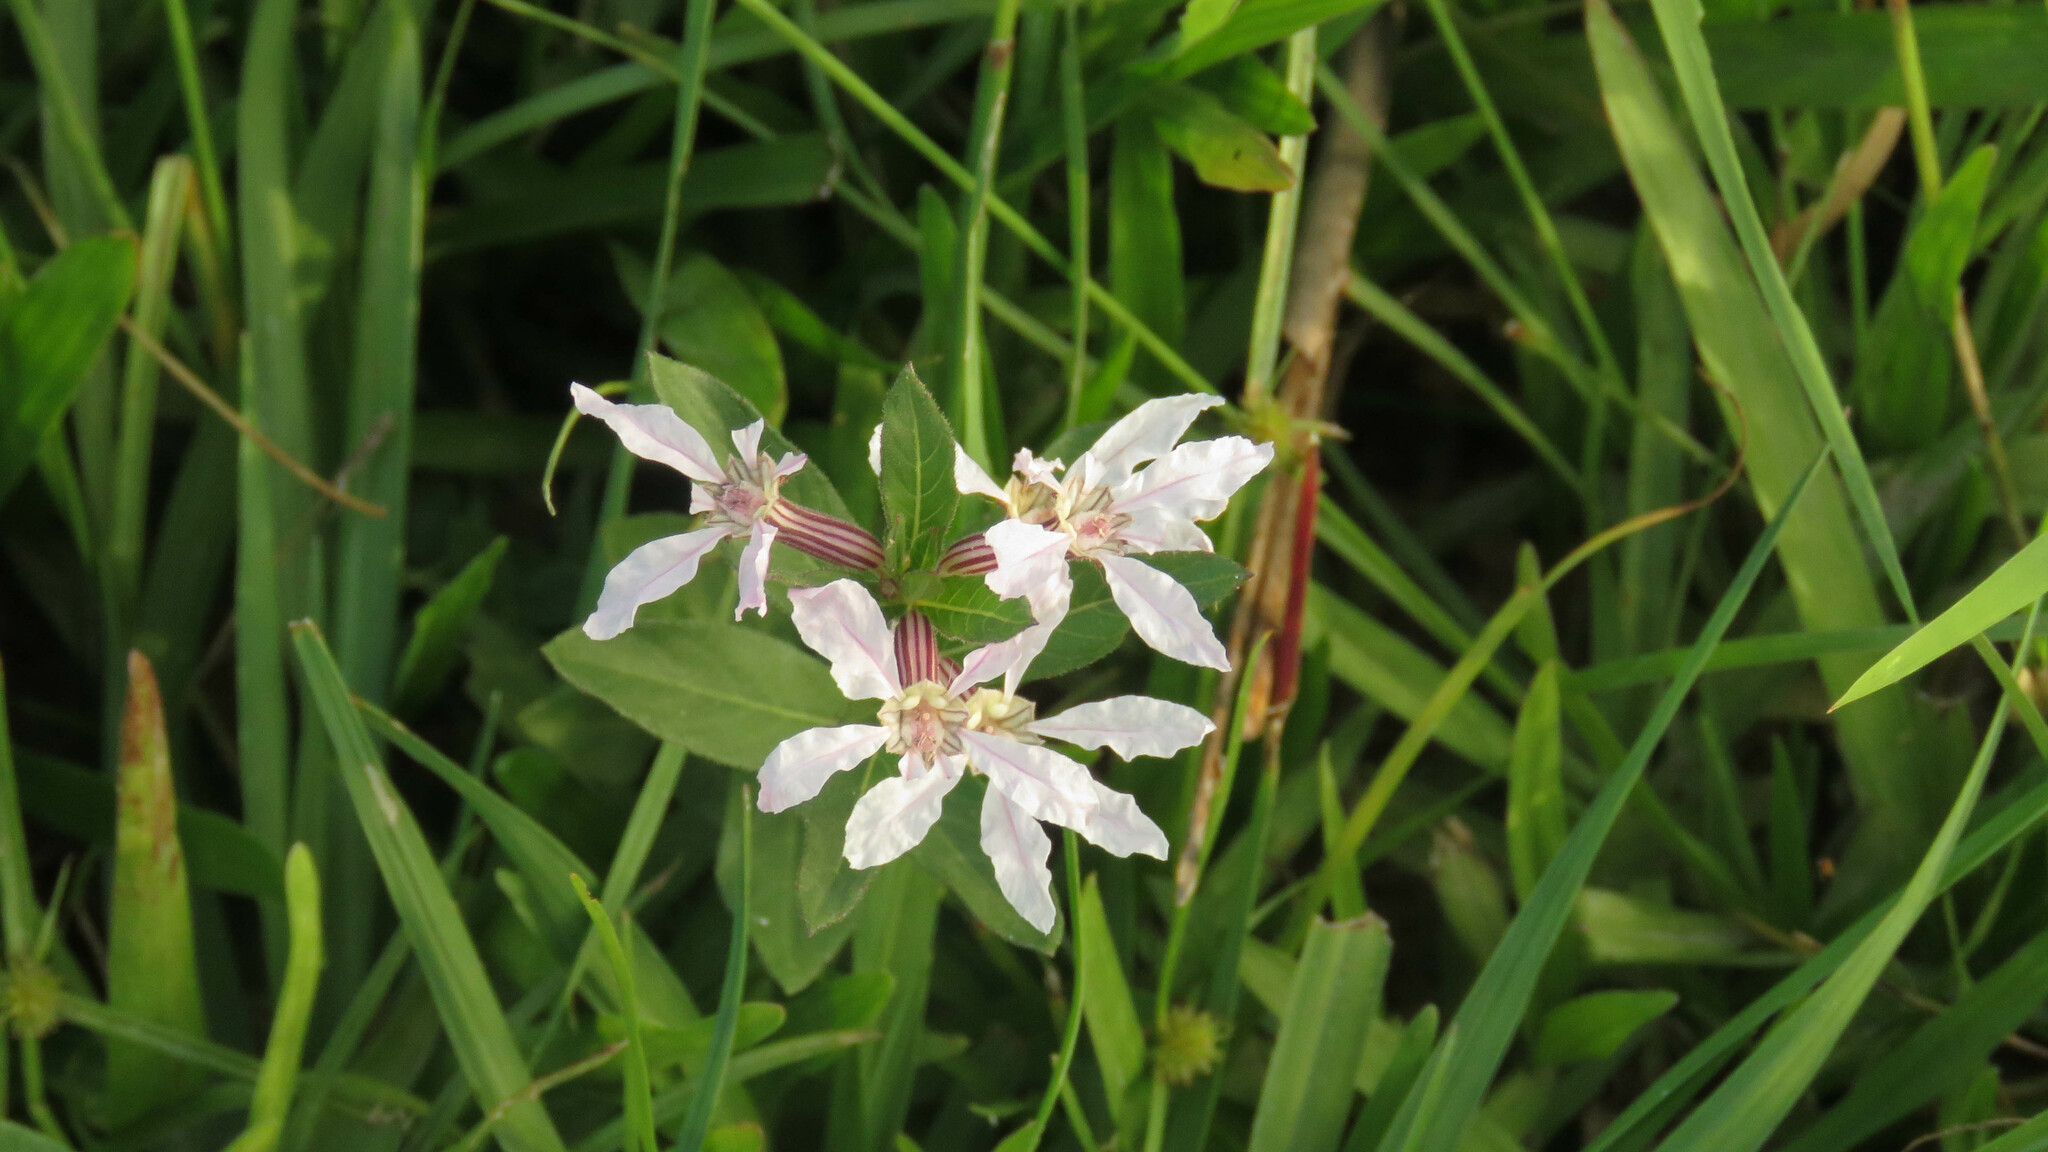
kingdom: Plantae
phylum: Tracheophyta
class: Magnoliopsida
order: Myrtales
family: Lythraceae
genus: Cuphea
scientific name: Cuphea lysimachioides
